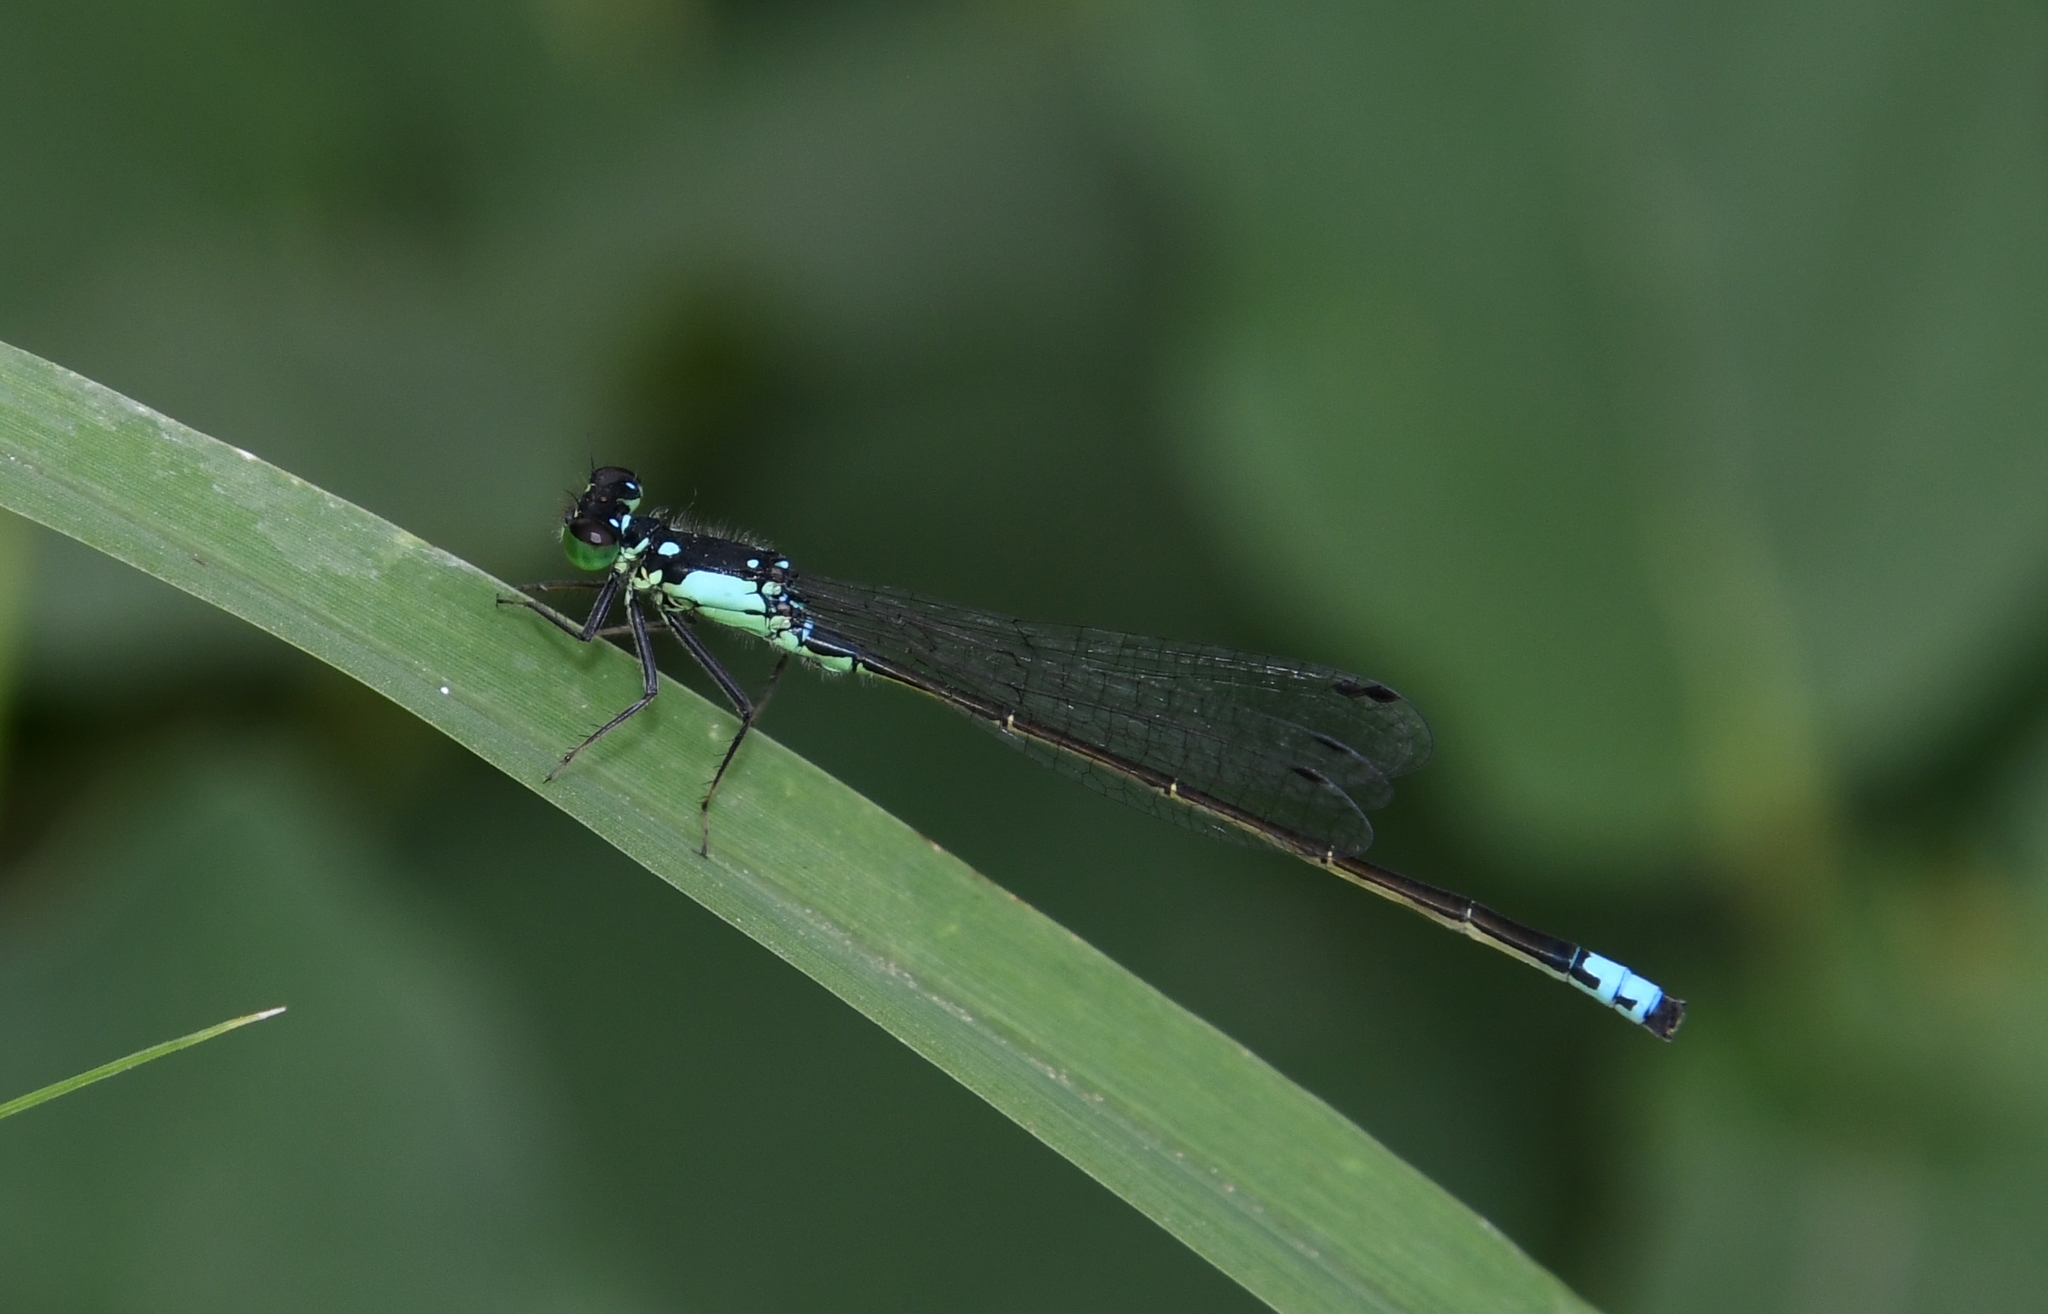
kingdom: Animalia
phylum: Arthropoda
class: Insecta
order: Odonata
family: Coenagrionidae
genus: Ischnura
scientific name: Ischnura cervula
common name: Pacific forktail
